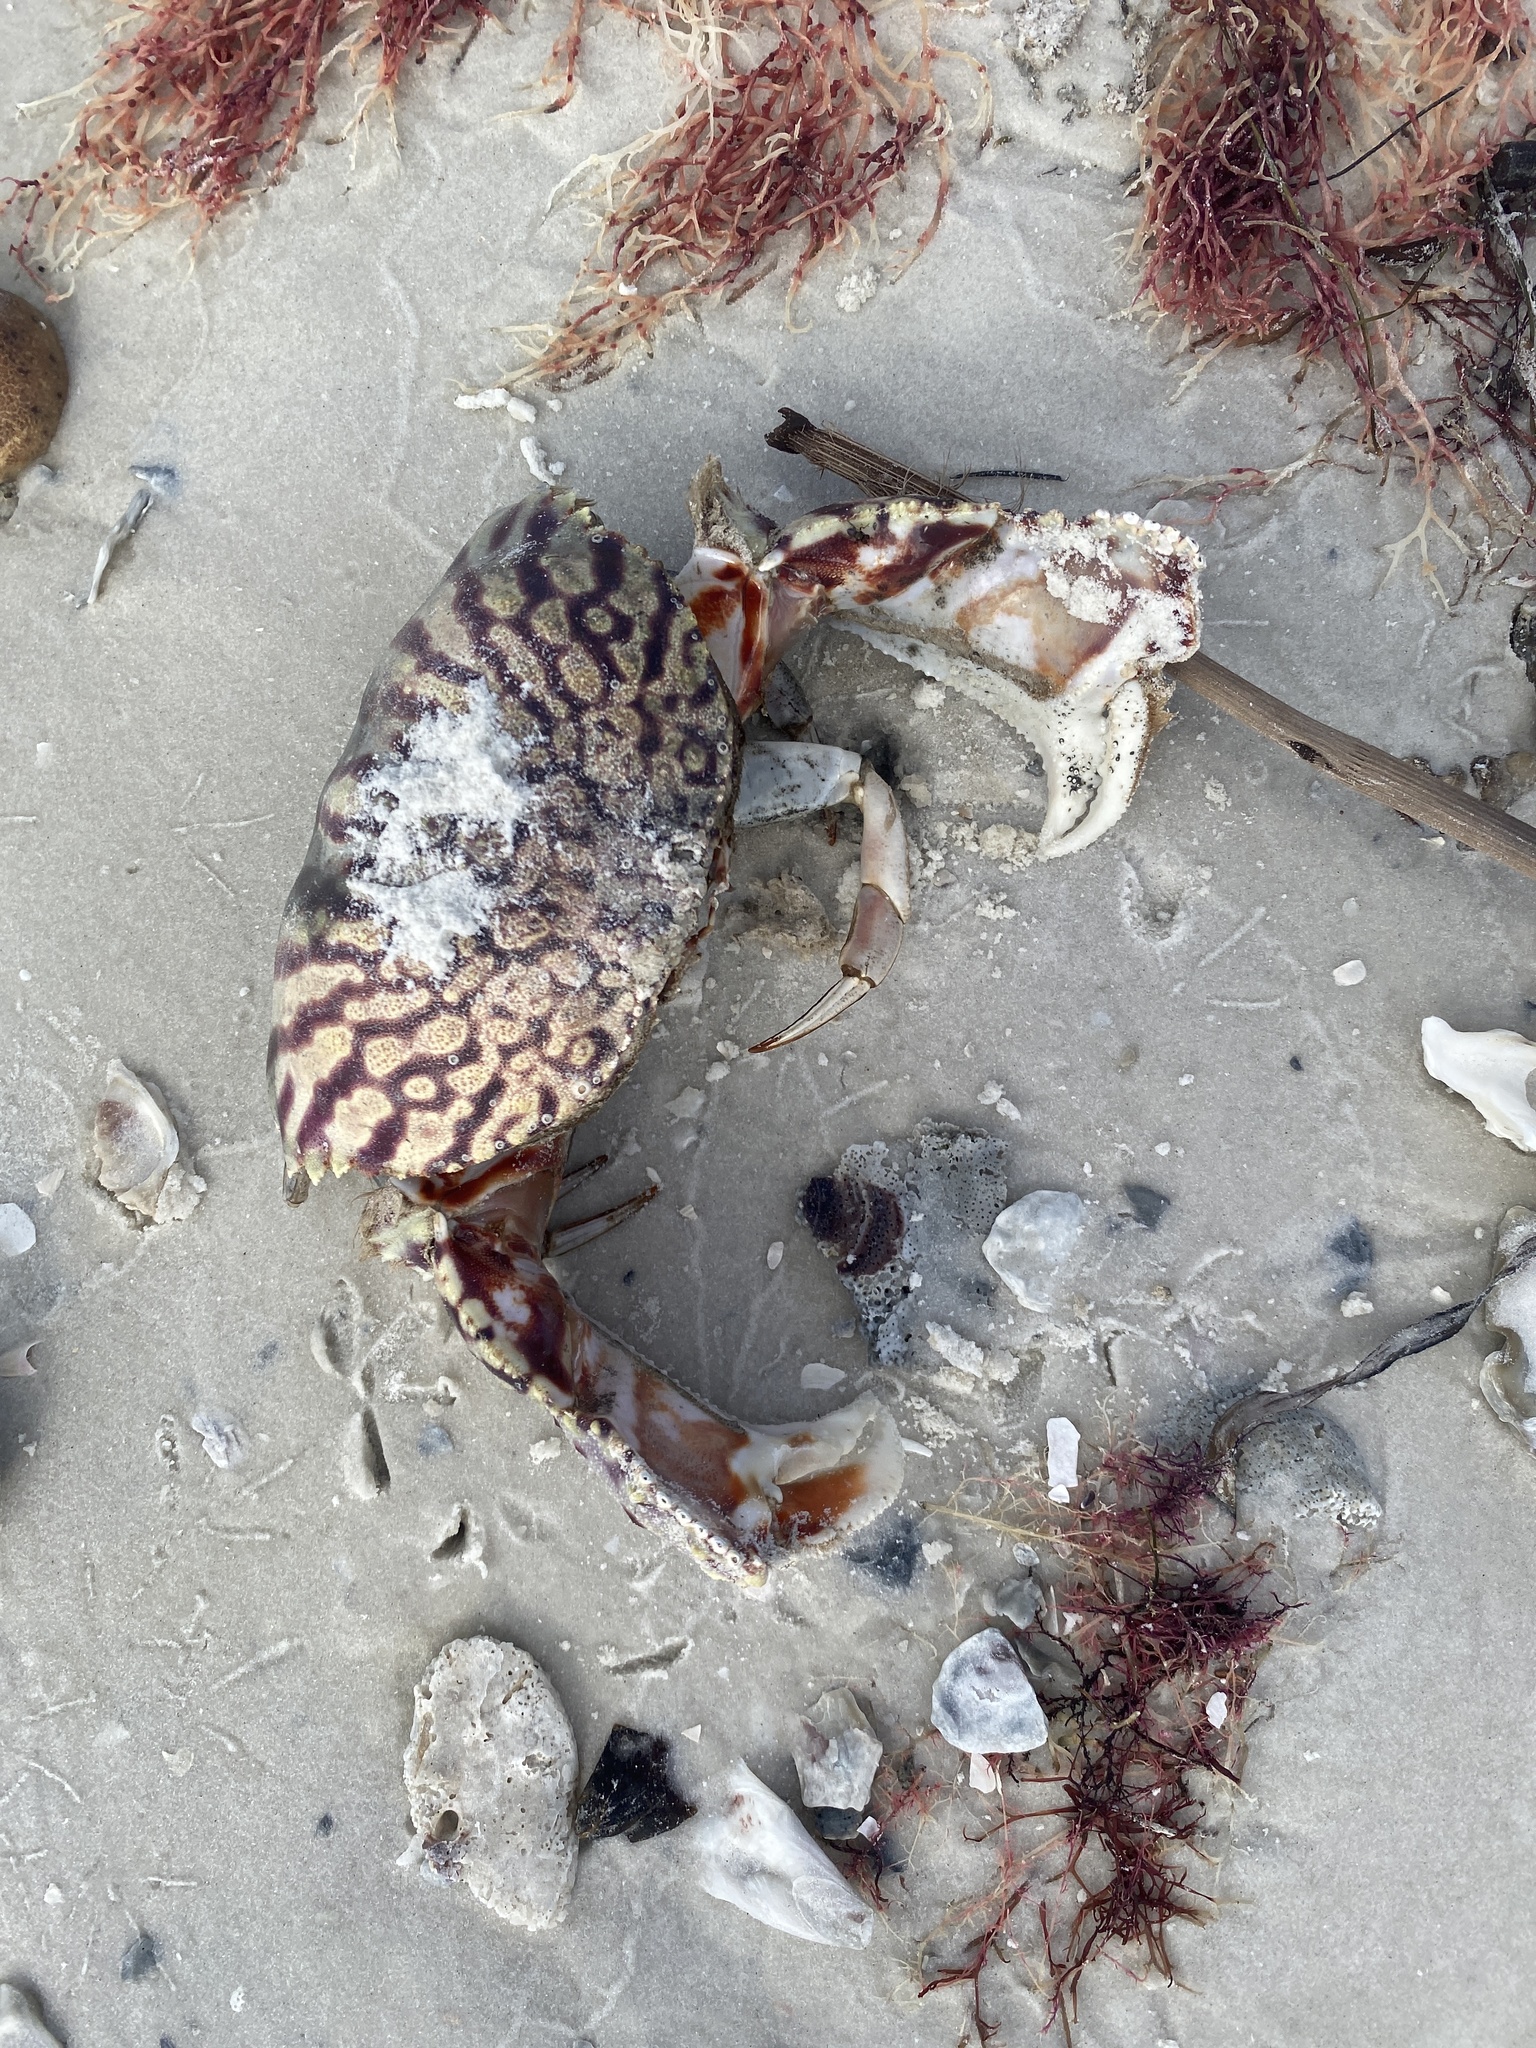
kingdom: Animalia
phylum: Arthropoda
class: Malacostraca
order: Decapoda
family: Calappidae
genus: Calappa
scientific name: Calappa flammea
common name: Flamed box crab
